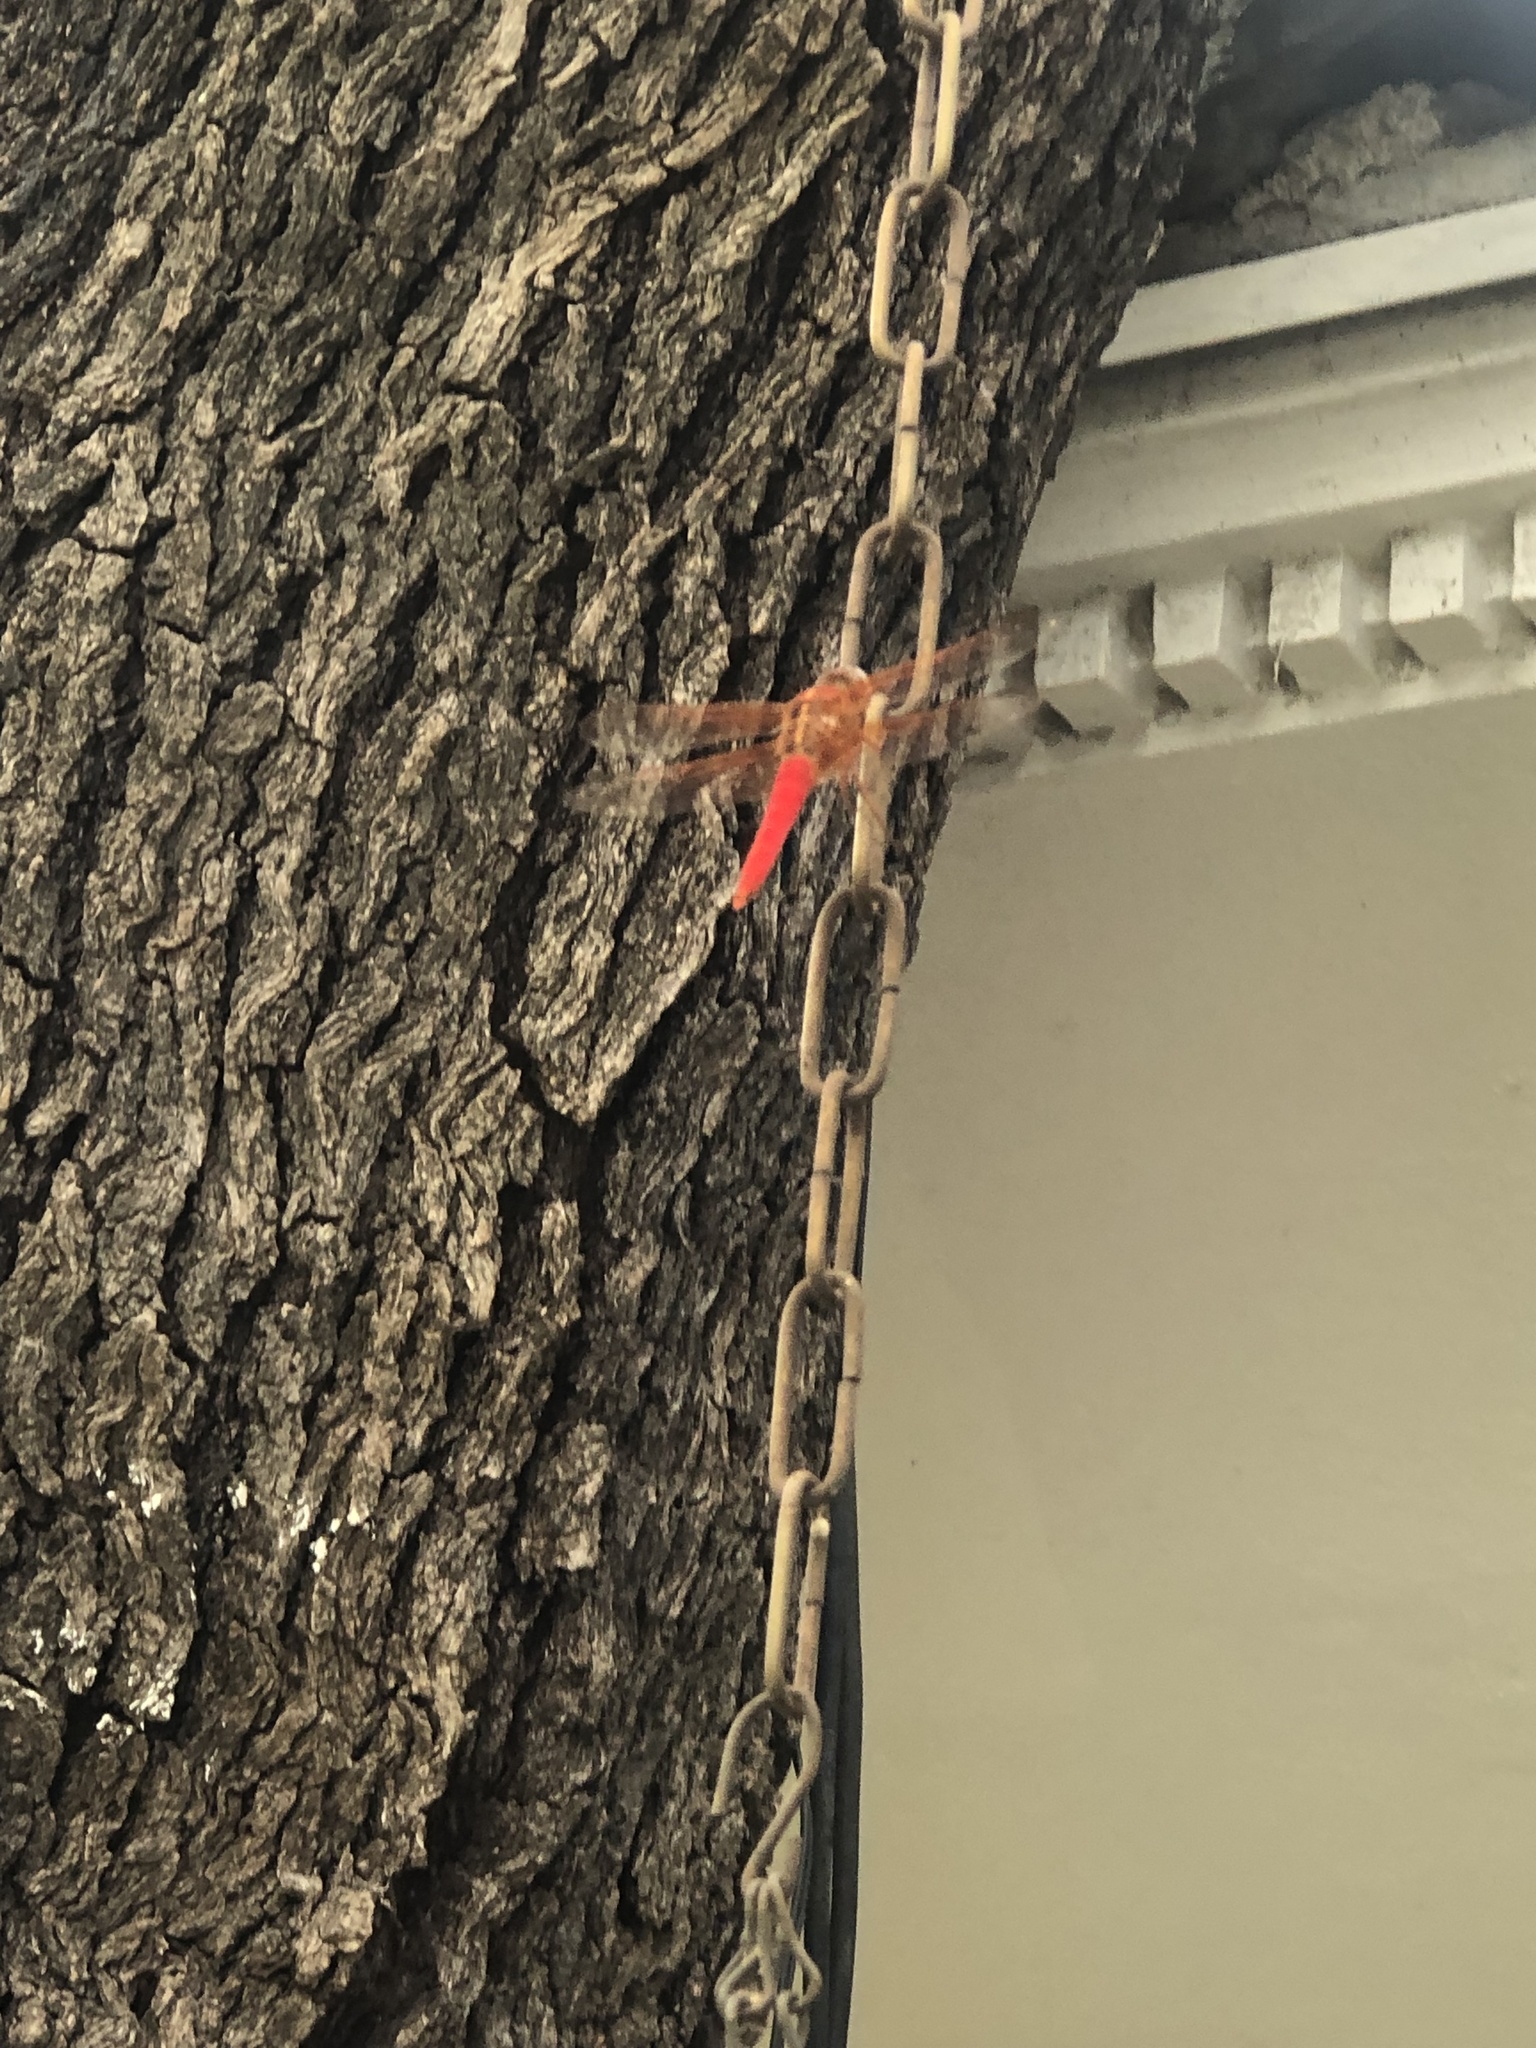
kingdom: Animalia
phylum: Arthropoda
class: Insecta
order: Odonata
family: Libellulidae
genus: Libellula
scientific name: Libellula croceipennis
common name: Neon skimmer
